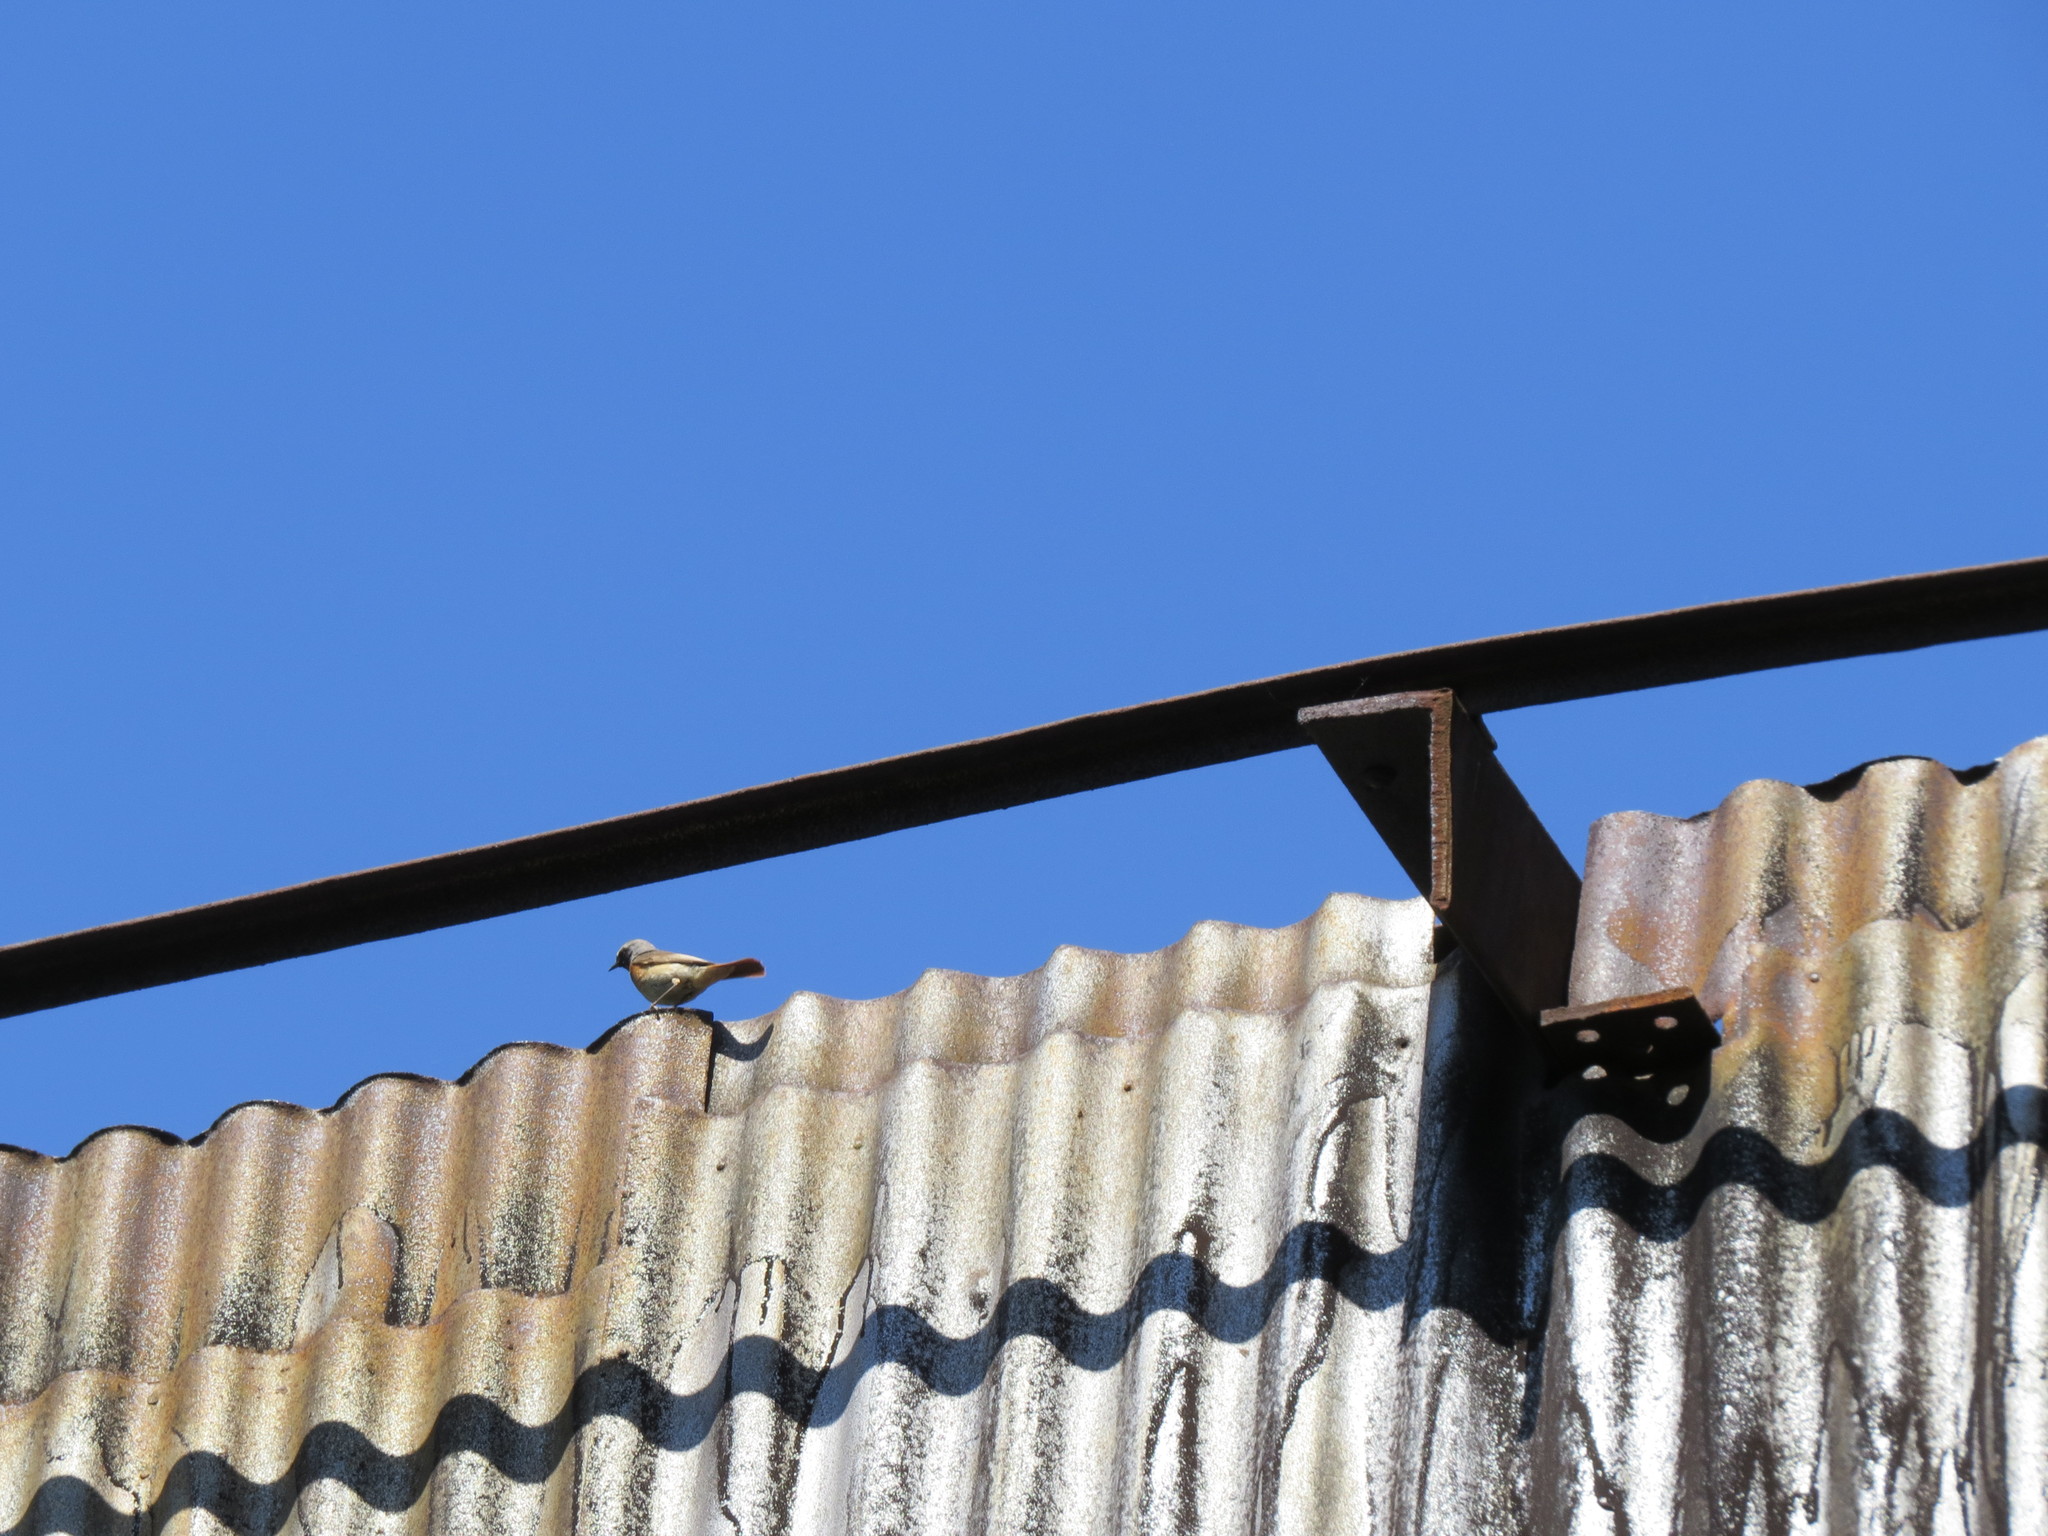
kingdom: Animalia
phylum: Chordata
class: Aves
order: Passeriformes
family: Muscicapidae
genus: Phoenicurus
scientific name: Phoenicurus phoenicurus
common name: Common redstart
